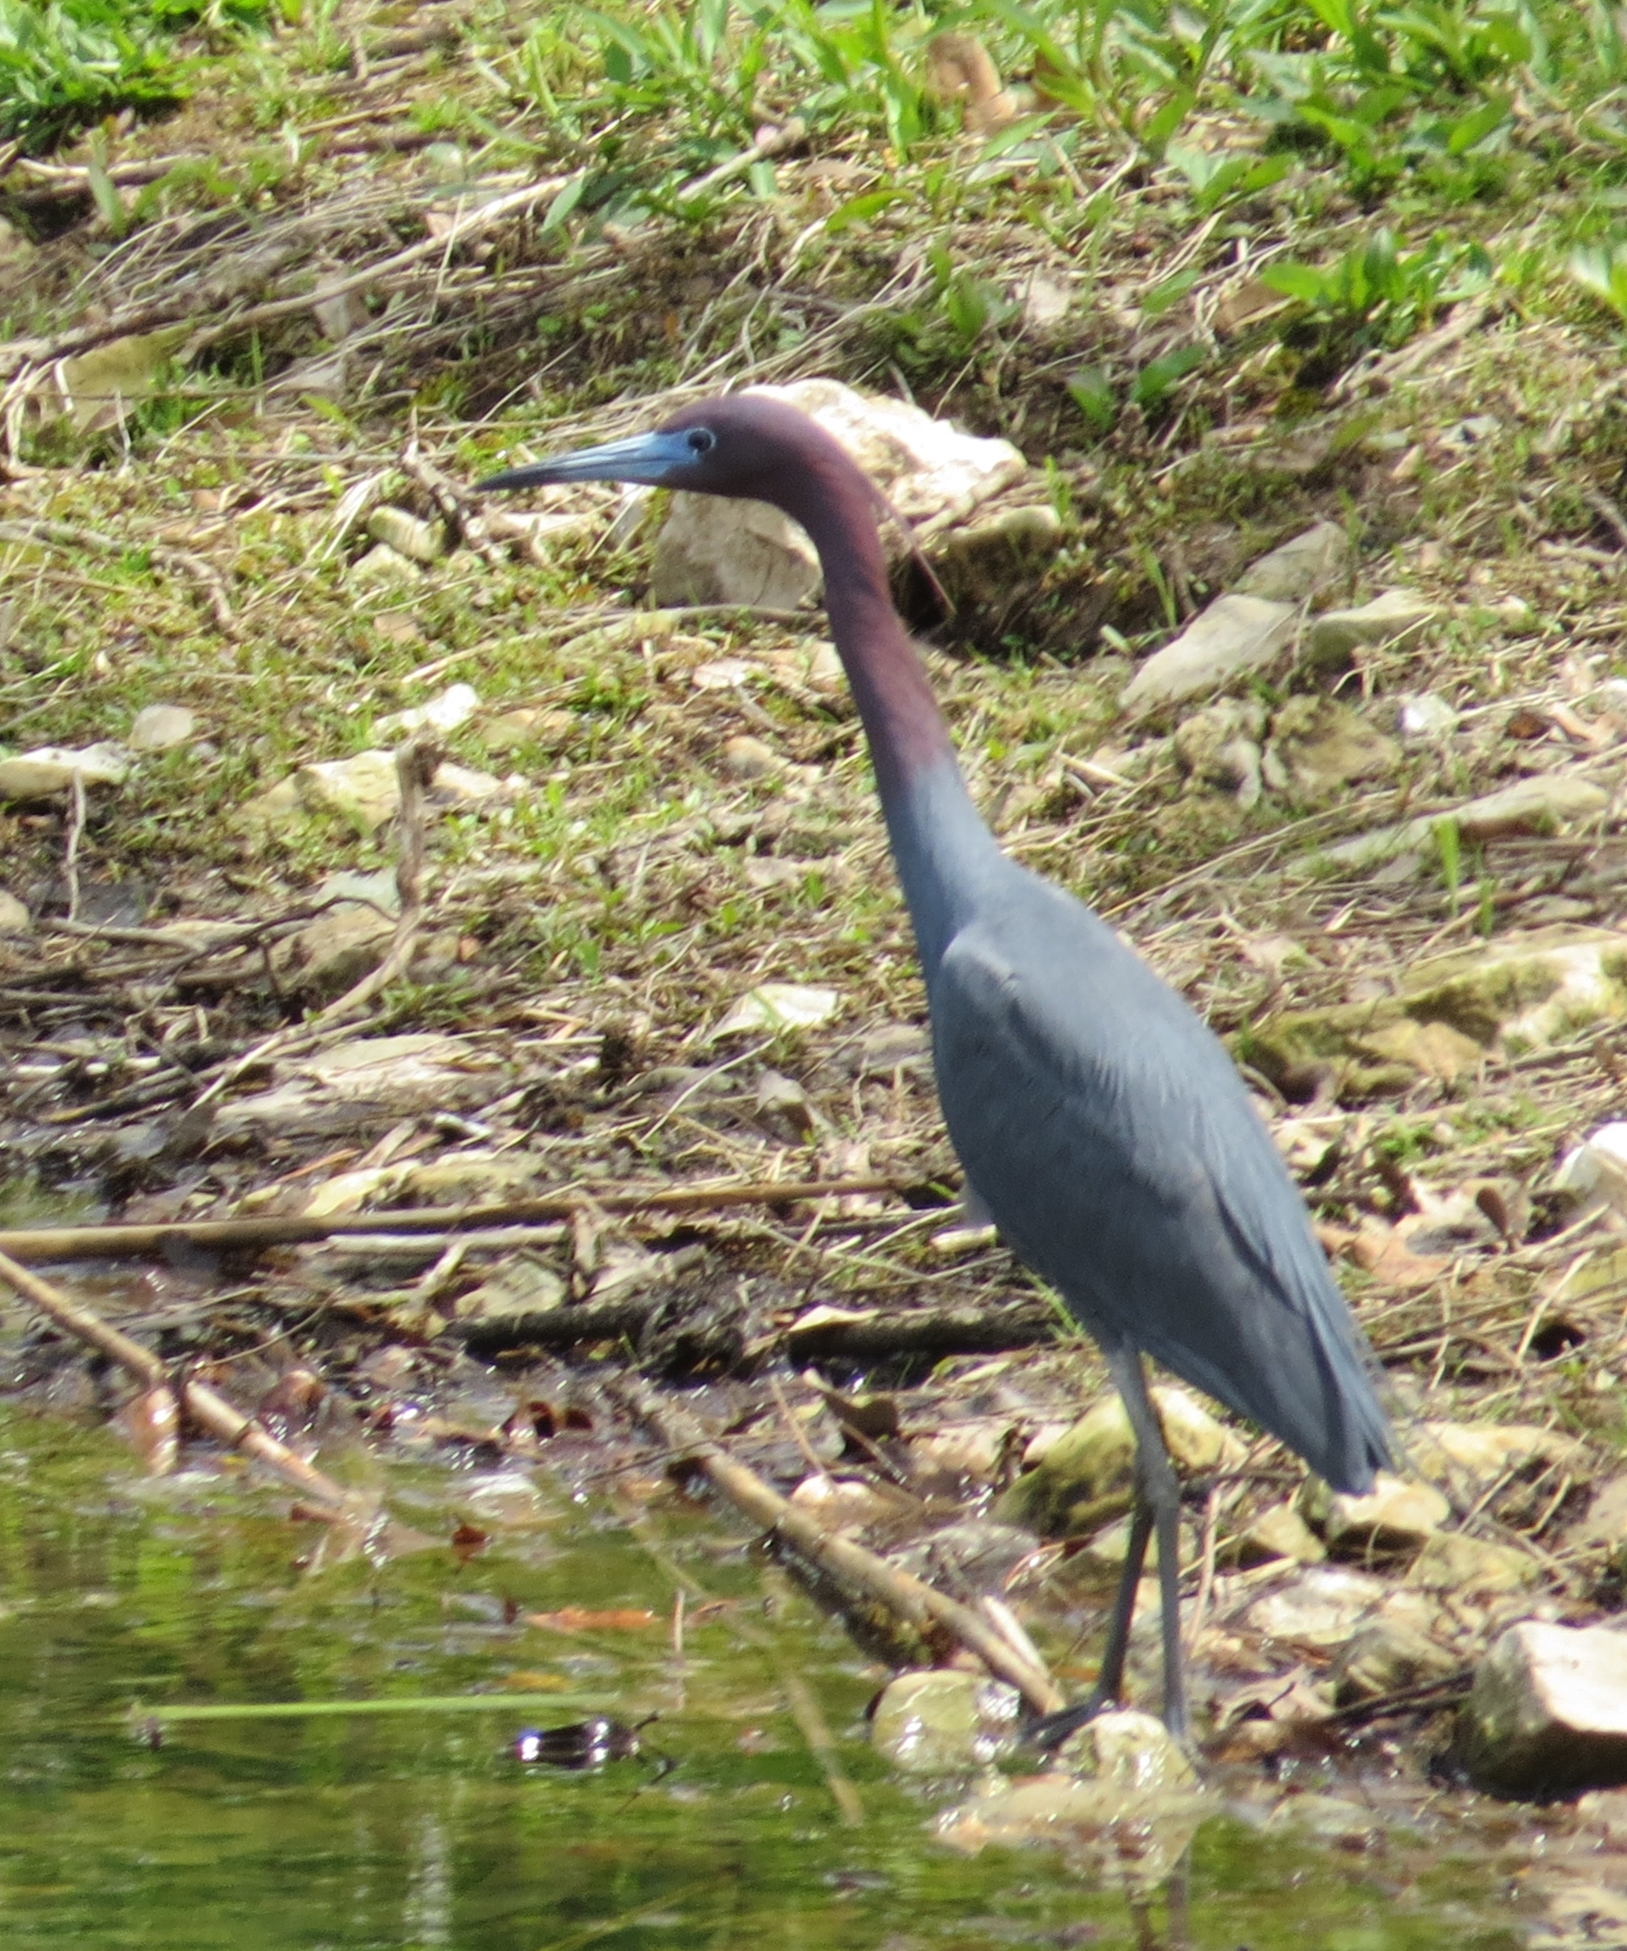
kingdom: Animalia
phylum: Chordata
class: Aves
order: Pelecaniformes
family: Ardeidae
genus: Egretta
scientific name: Egretta caerulea
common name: Little blue heron
